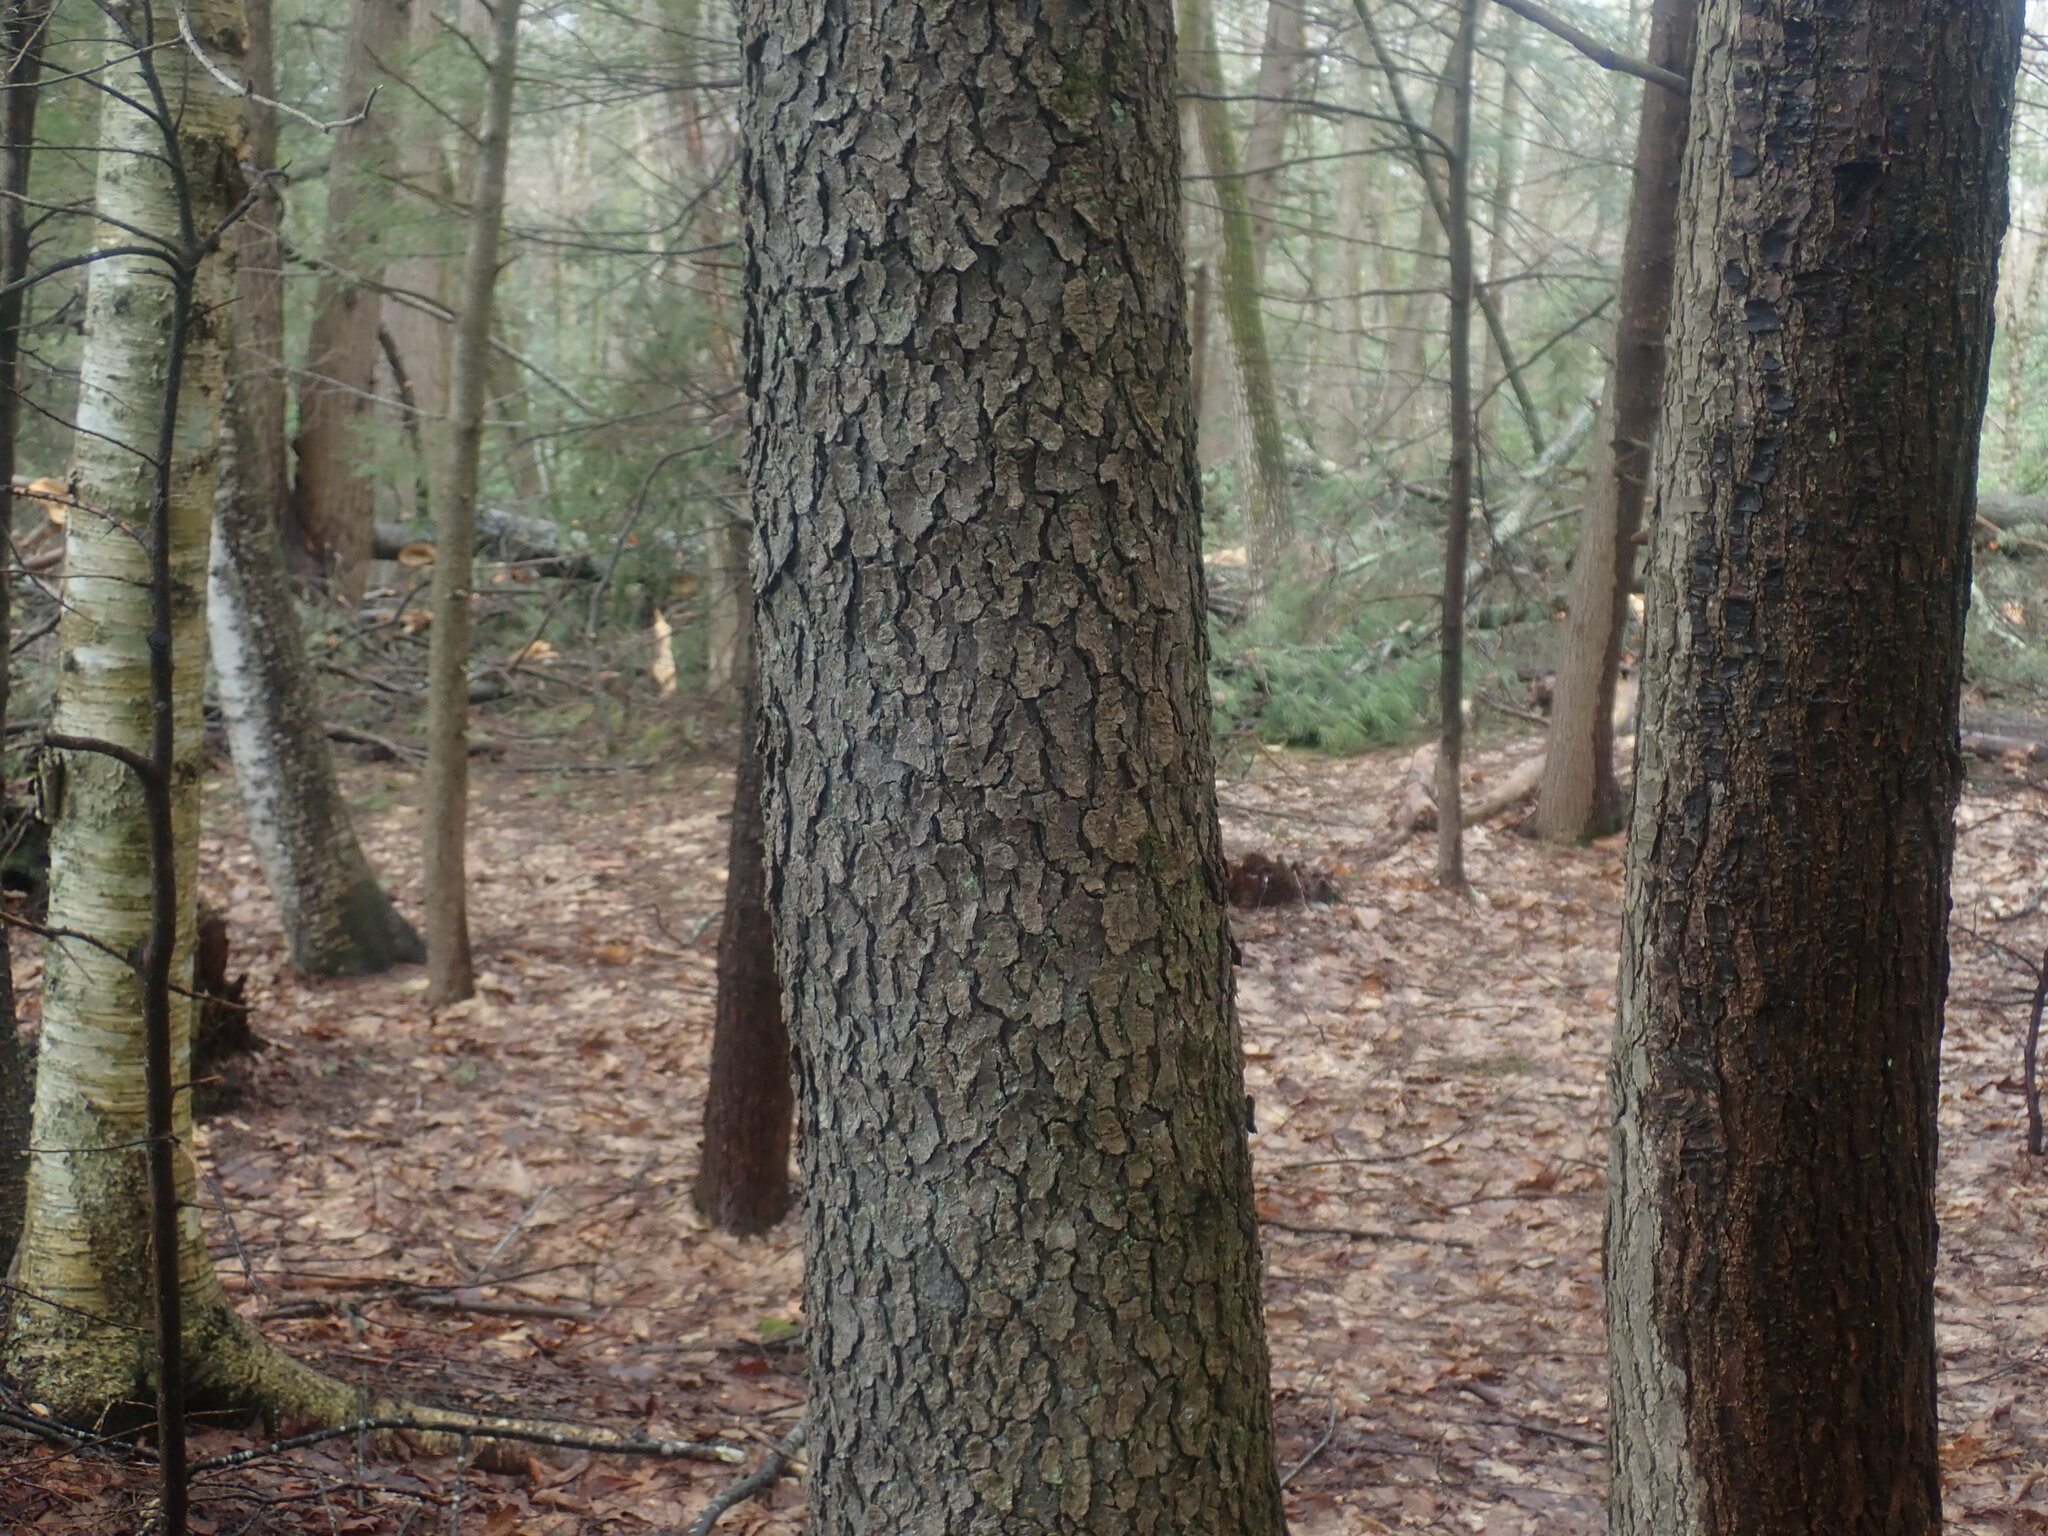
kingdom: Plantae
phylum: Tracheophyta
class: Magnoliopsida
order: Rosales
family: Rosaceae
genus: Prunus
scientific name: Prunus serotina
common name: Black cherry
